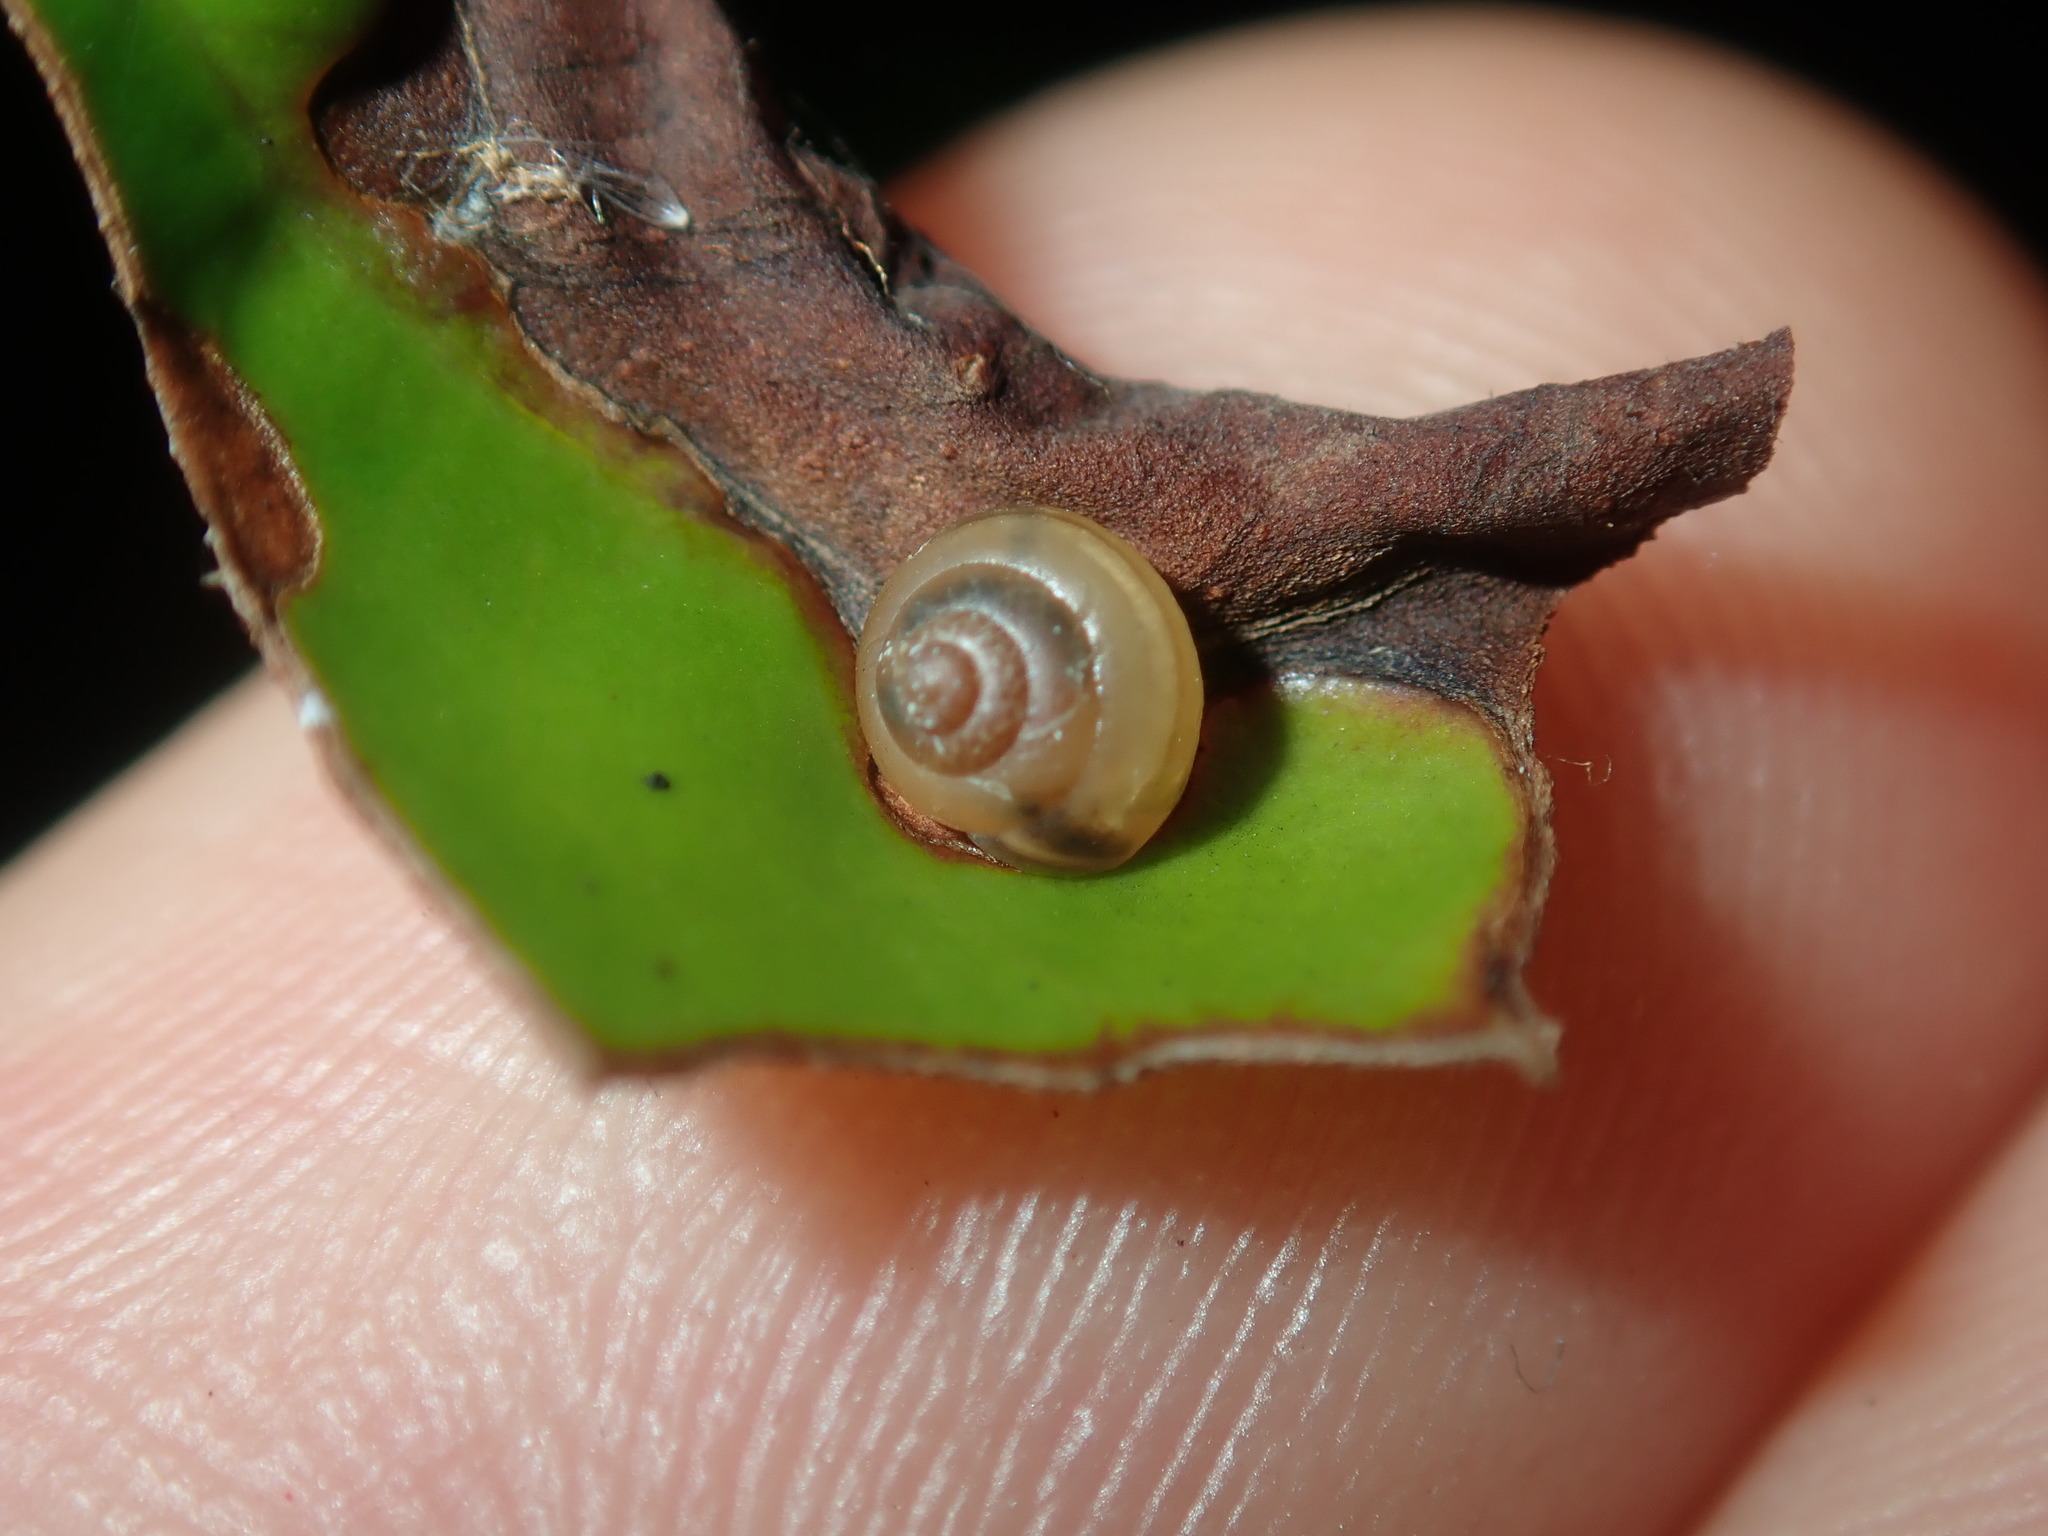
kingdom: Animalia
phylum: Mollusca
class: Gastropoda
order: Stylommatophora
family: Euconulidae
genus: Coneuplecta
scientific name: Coneuplecta calculosa
